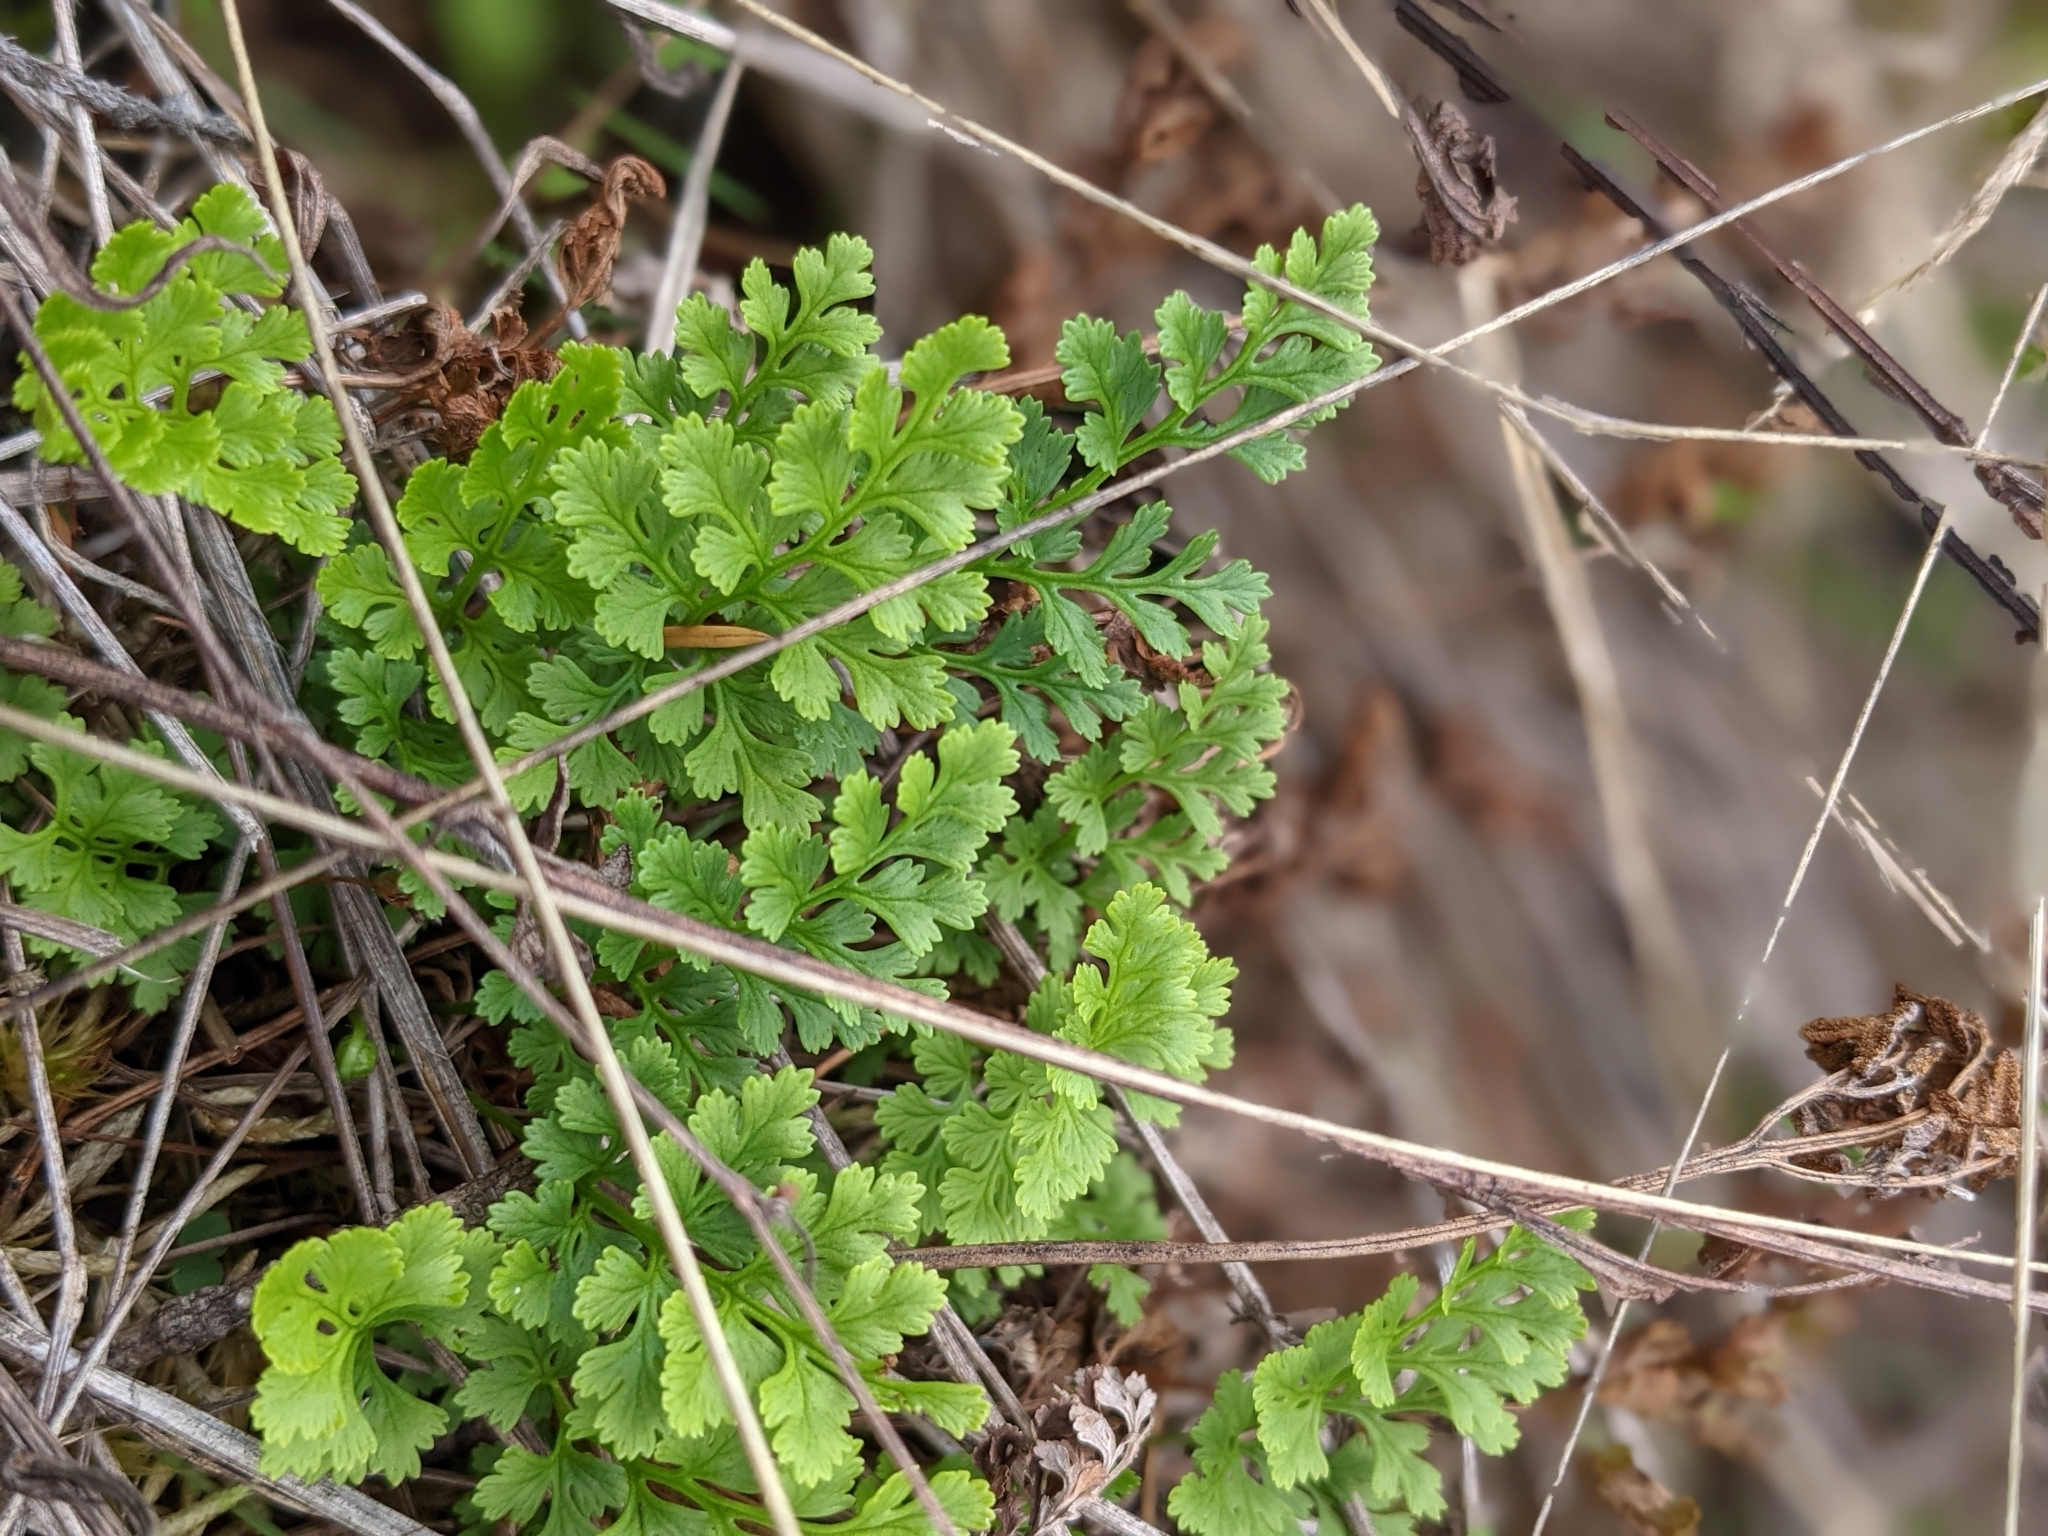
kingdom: Plantae
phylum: Tracheophyta
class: Polypodiopsida
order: Polypodiales
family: Pteridaceae
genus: Cryptogramma
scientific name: Cryptogramma acrostichoides
